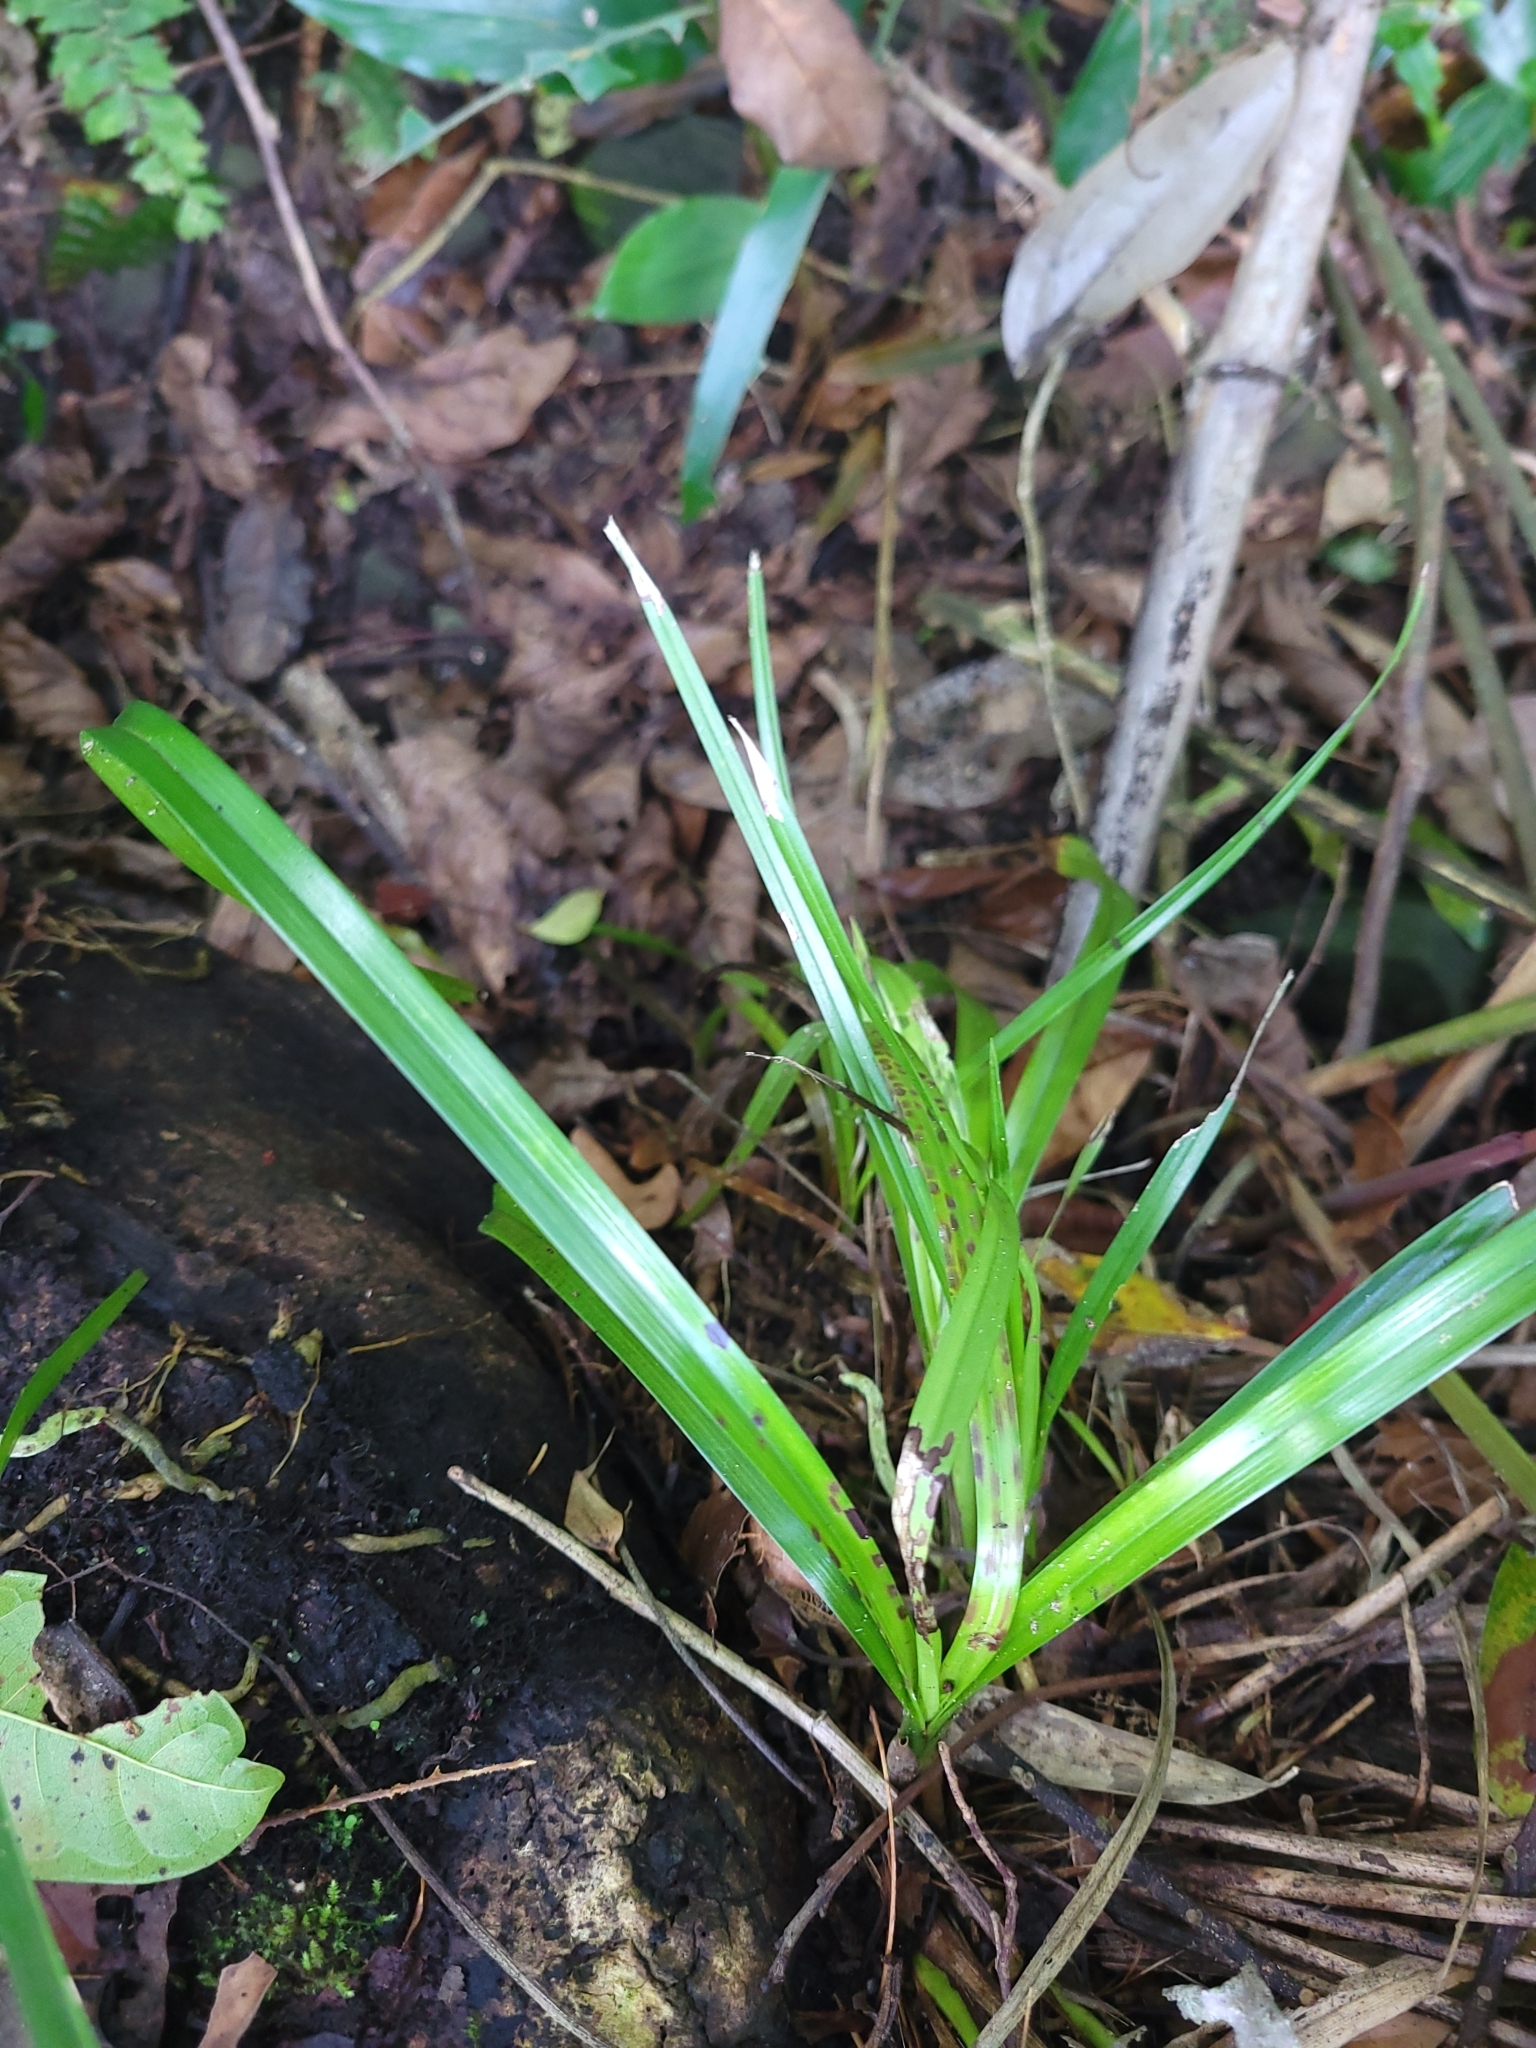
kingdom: Plantae
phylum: Tracheophyta
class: Liliopsida
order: Asparagales
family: Orchidaceae
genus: Cymbidium
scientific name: Cymbidium dayanum
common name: Orchid
